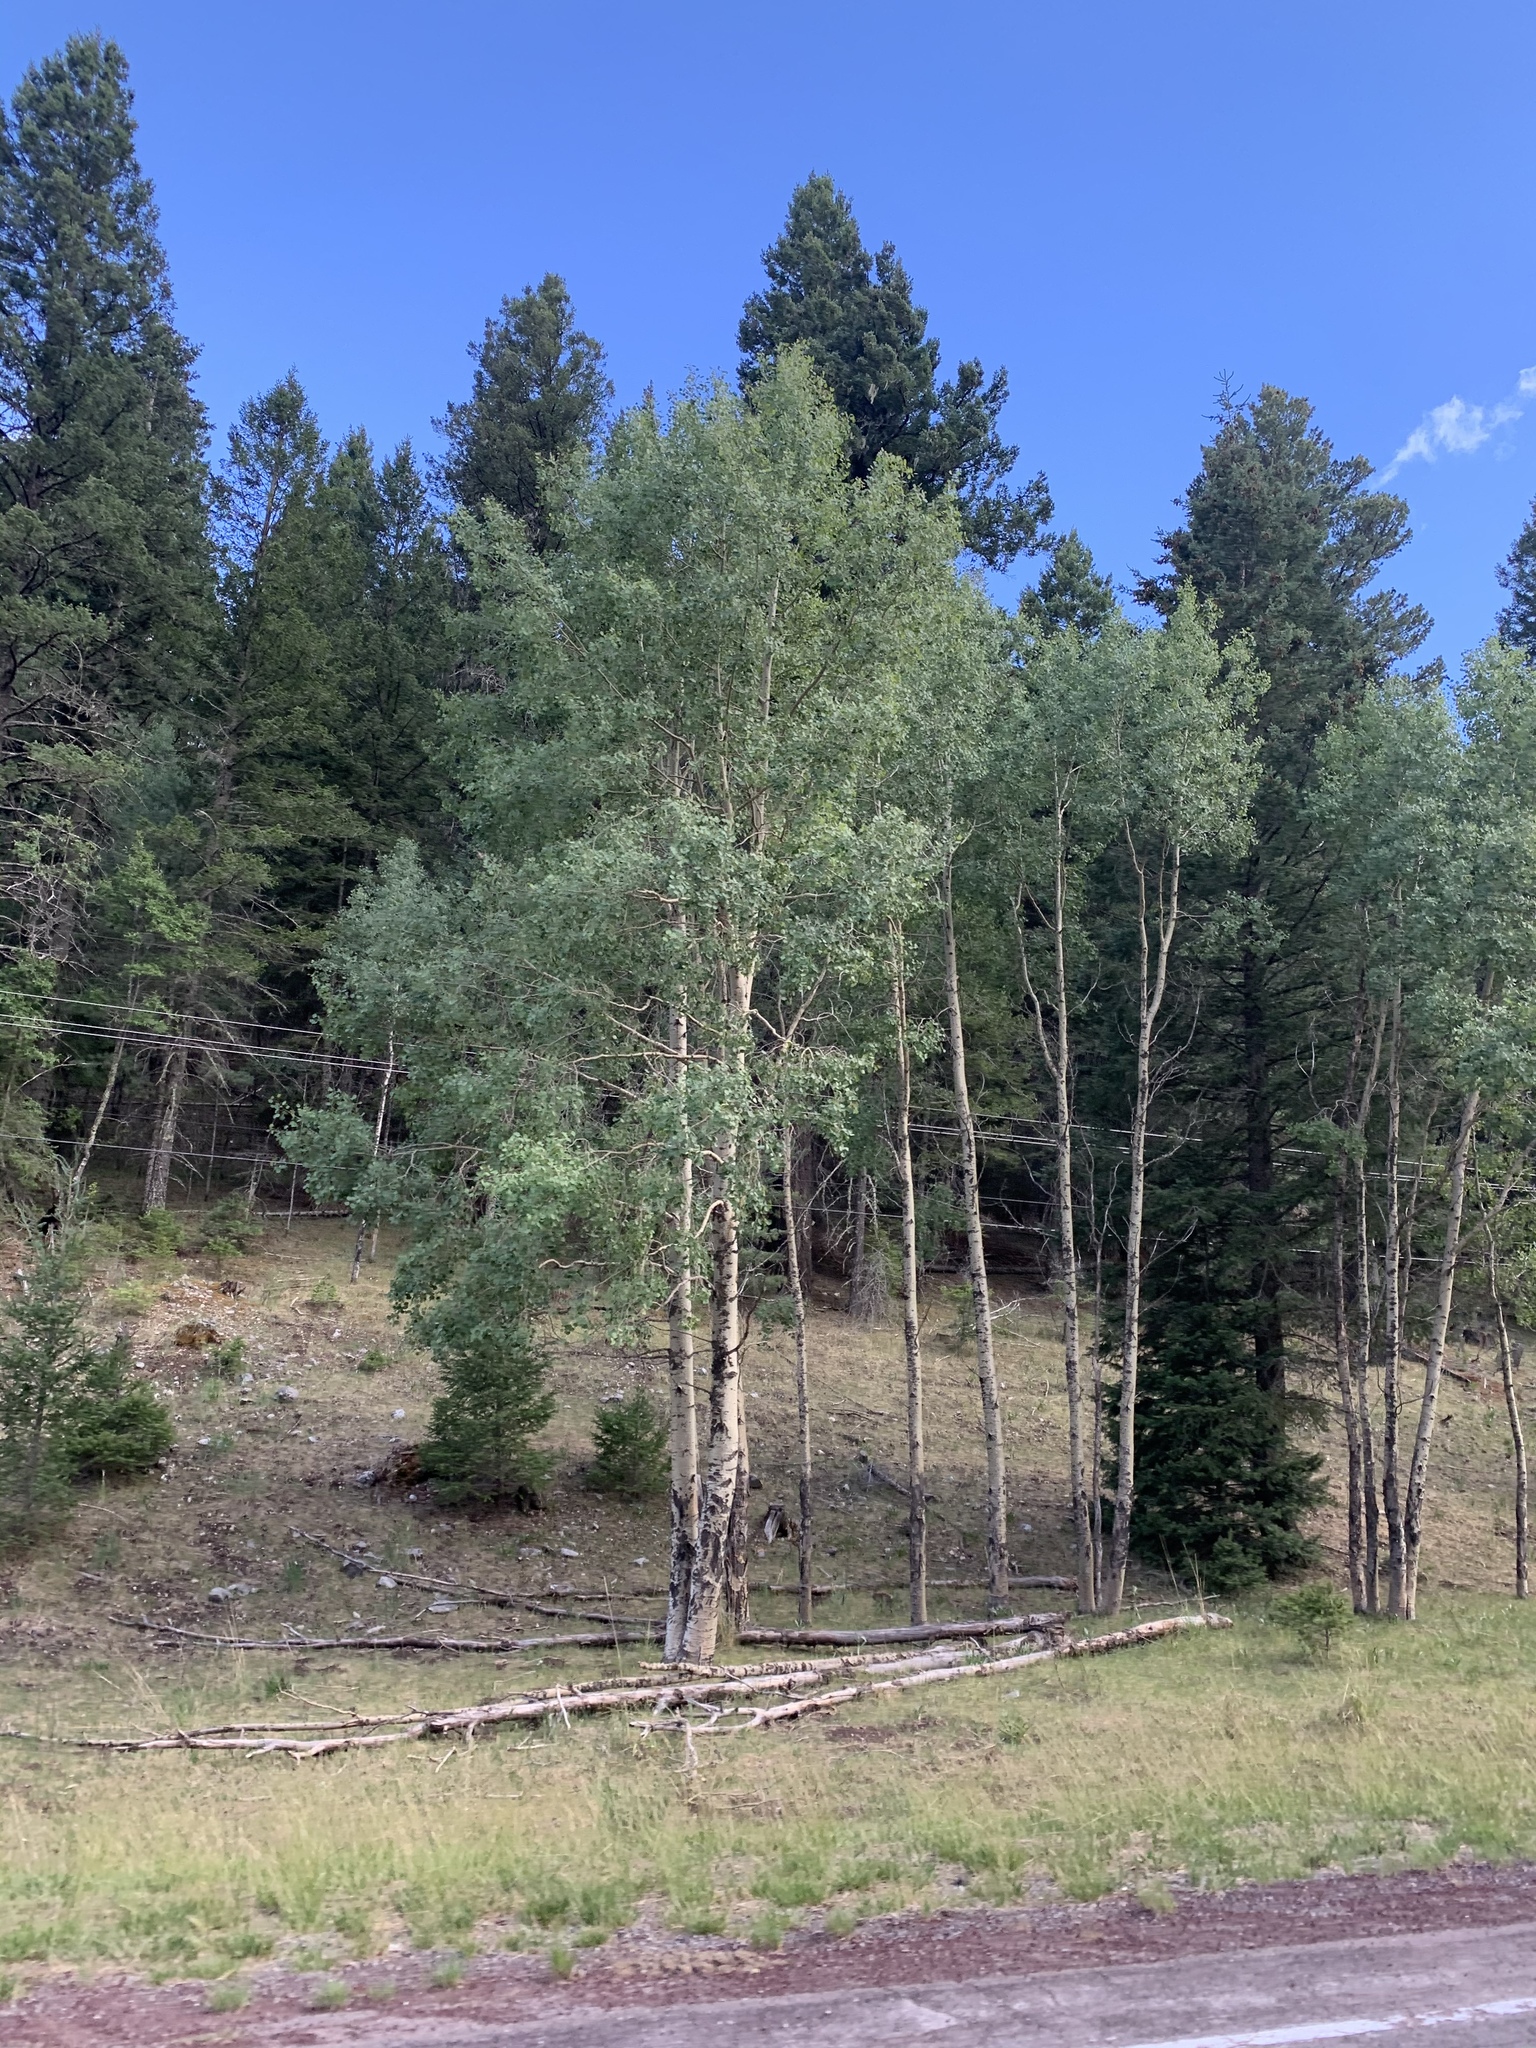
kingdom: Plantae
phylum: Tracheophyta
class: Magnoliopsida
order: Malpighiales
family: Salicaceae
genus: Populus
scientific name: Populus tremuloides
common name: Quaking aspen
